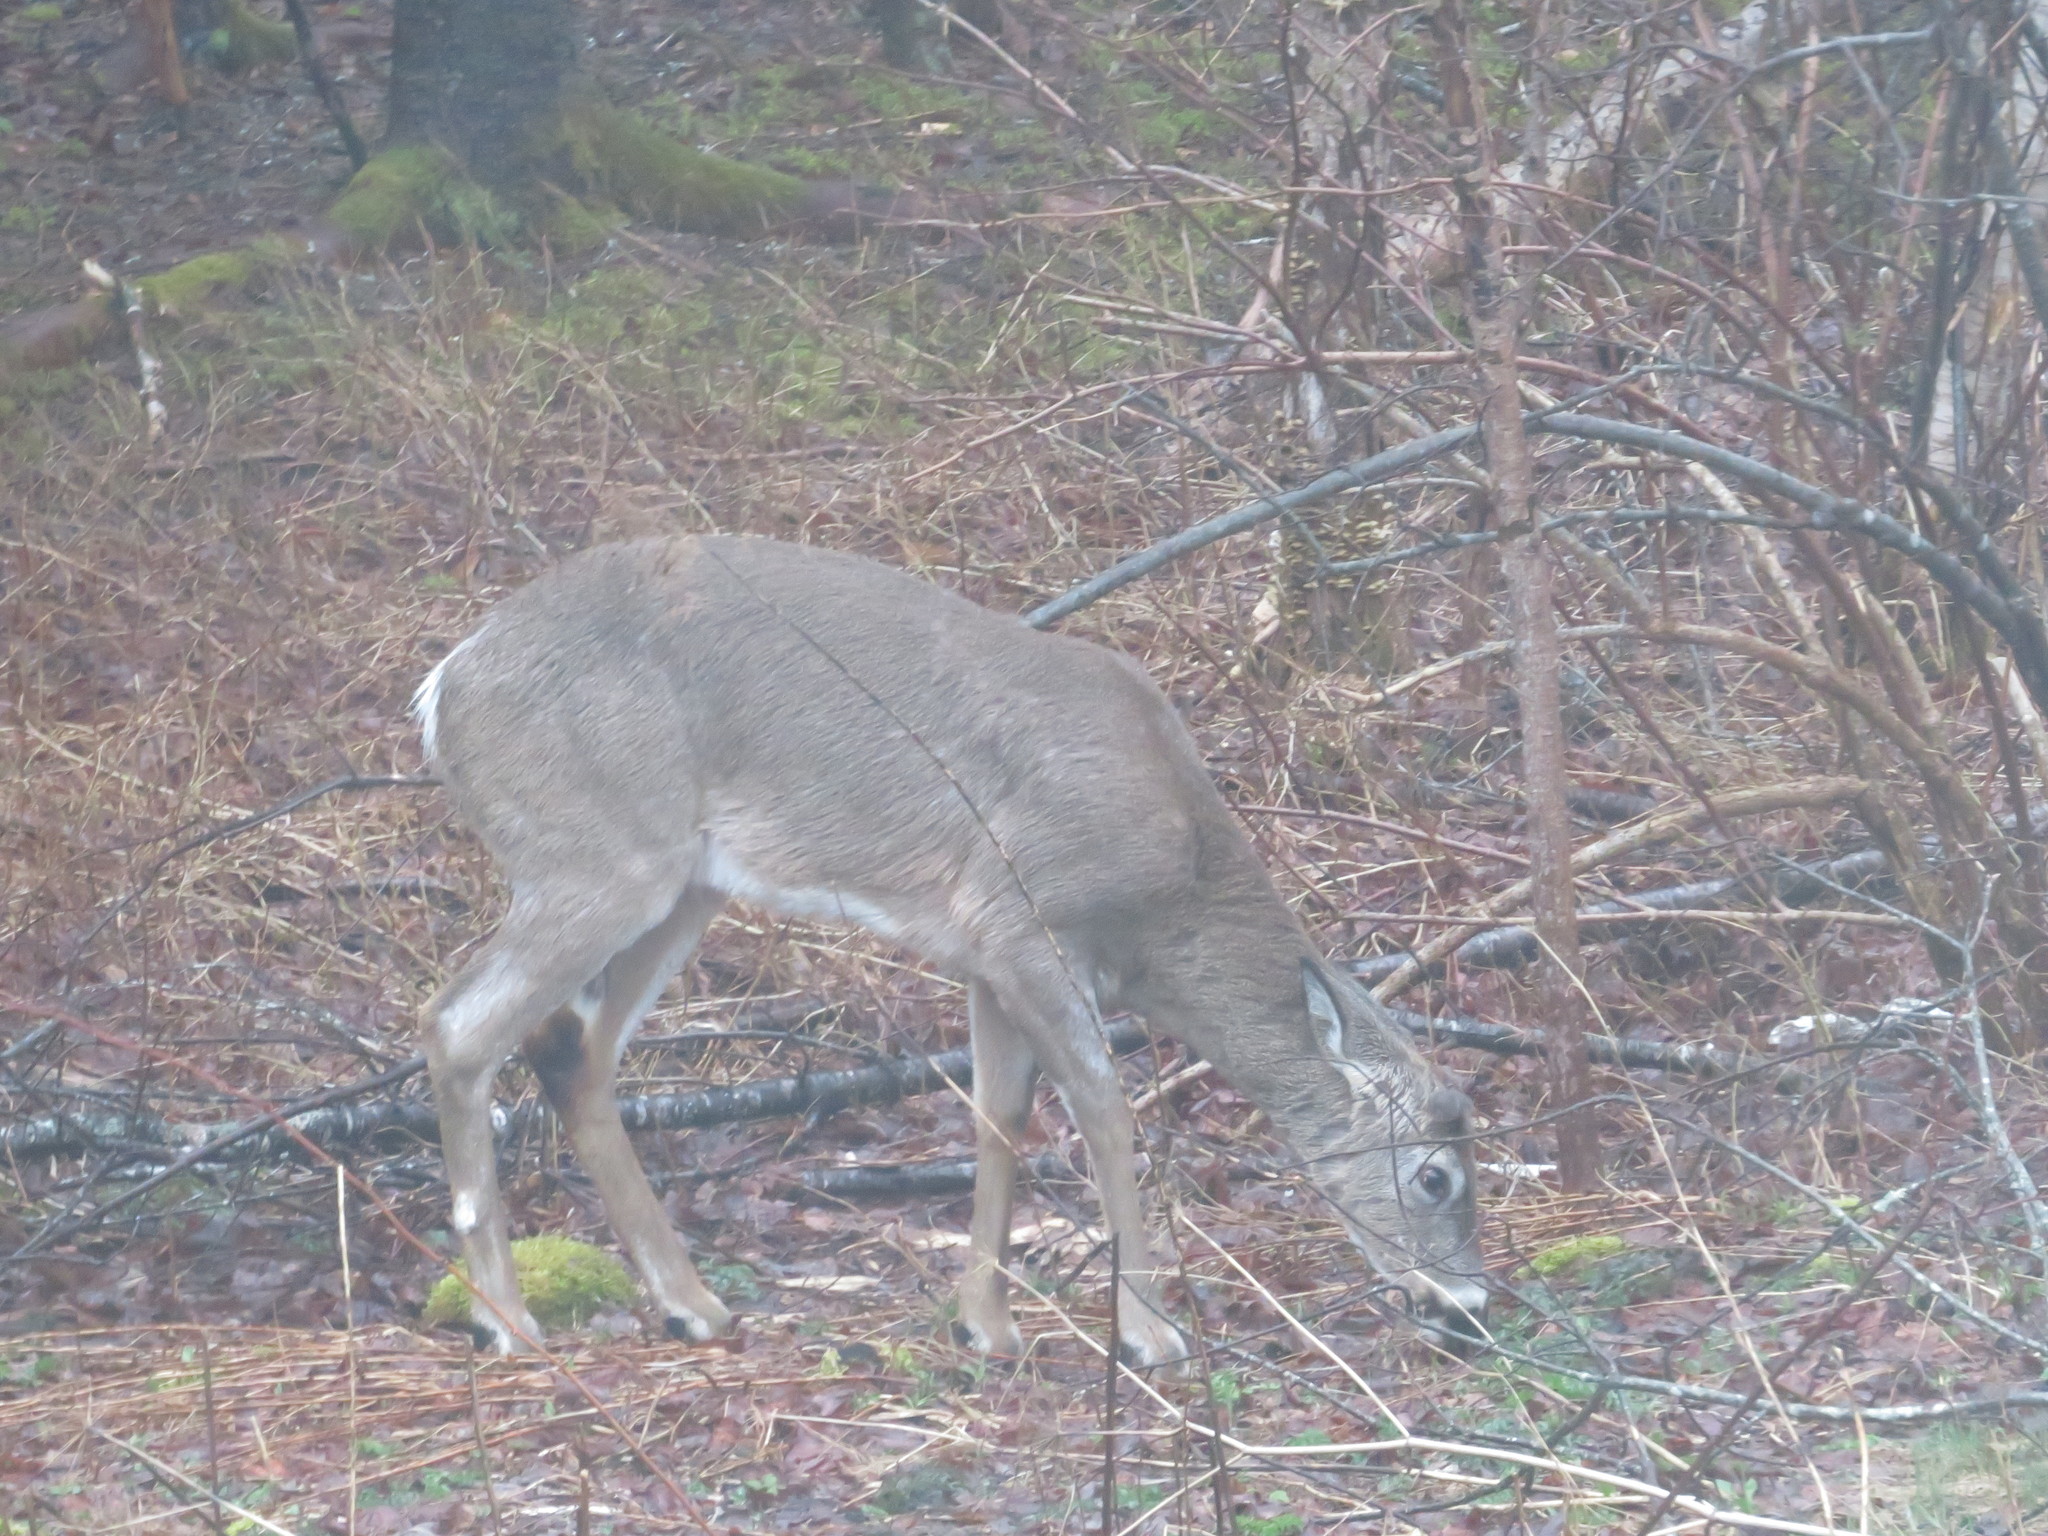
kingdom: Animalia
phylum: Chordata
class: Mammalia
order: Artiodactyla
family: Cervidae
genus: Odocoileus
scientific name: Odocoileus virginianus
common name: White-tailed deer
